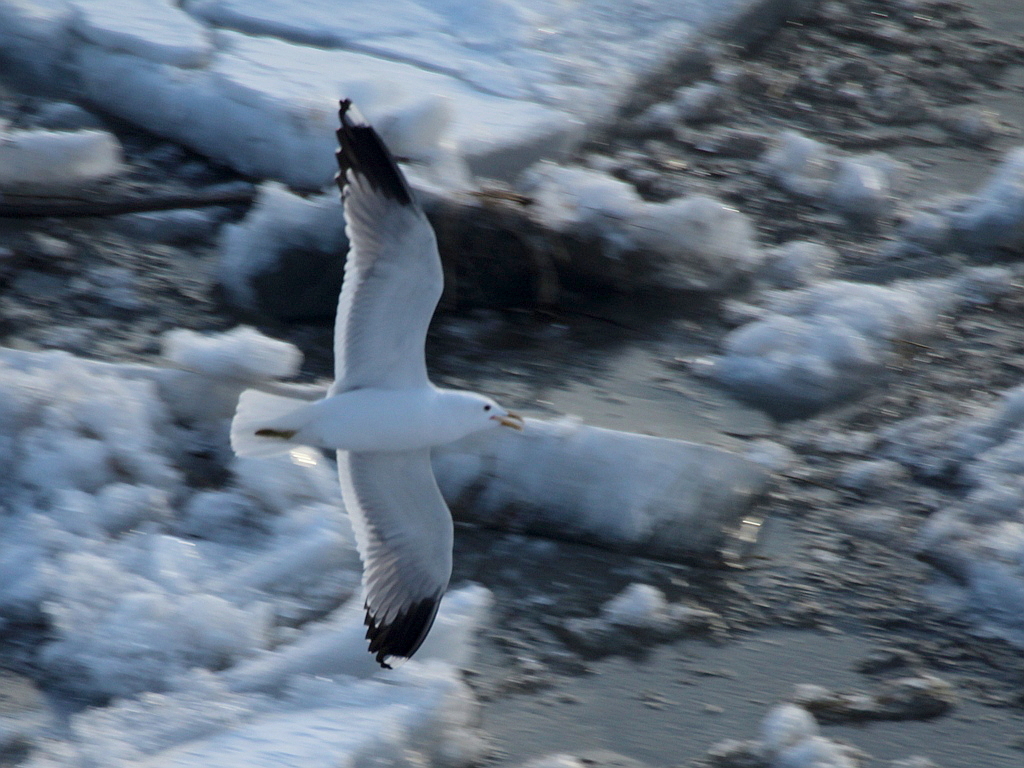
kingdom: Animalia
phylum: Chordata
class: Aves
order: Charadriiformes
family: Laridae
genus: Larus
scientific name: Larus canus
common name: Mew gull
